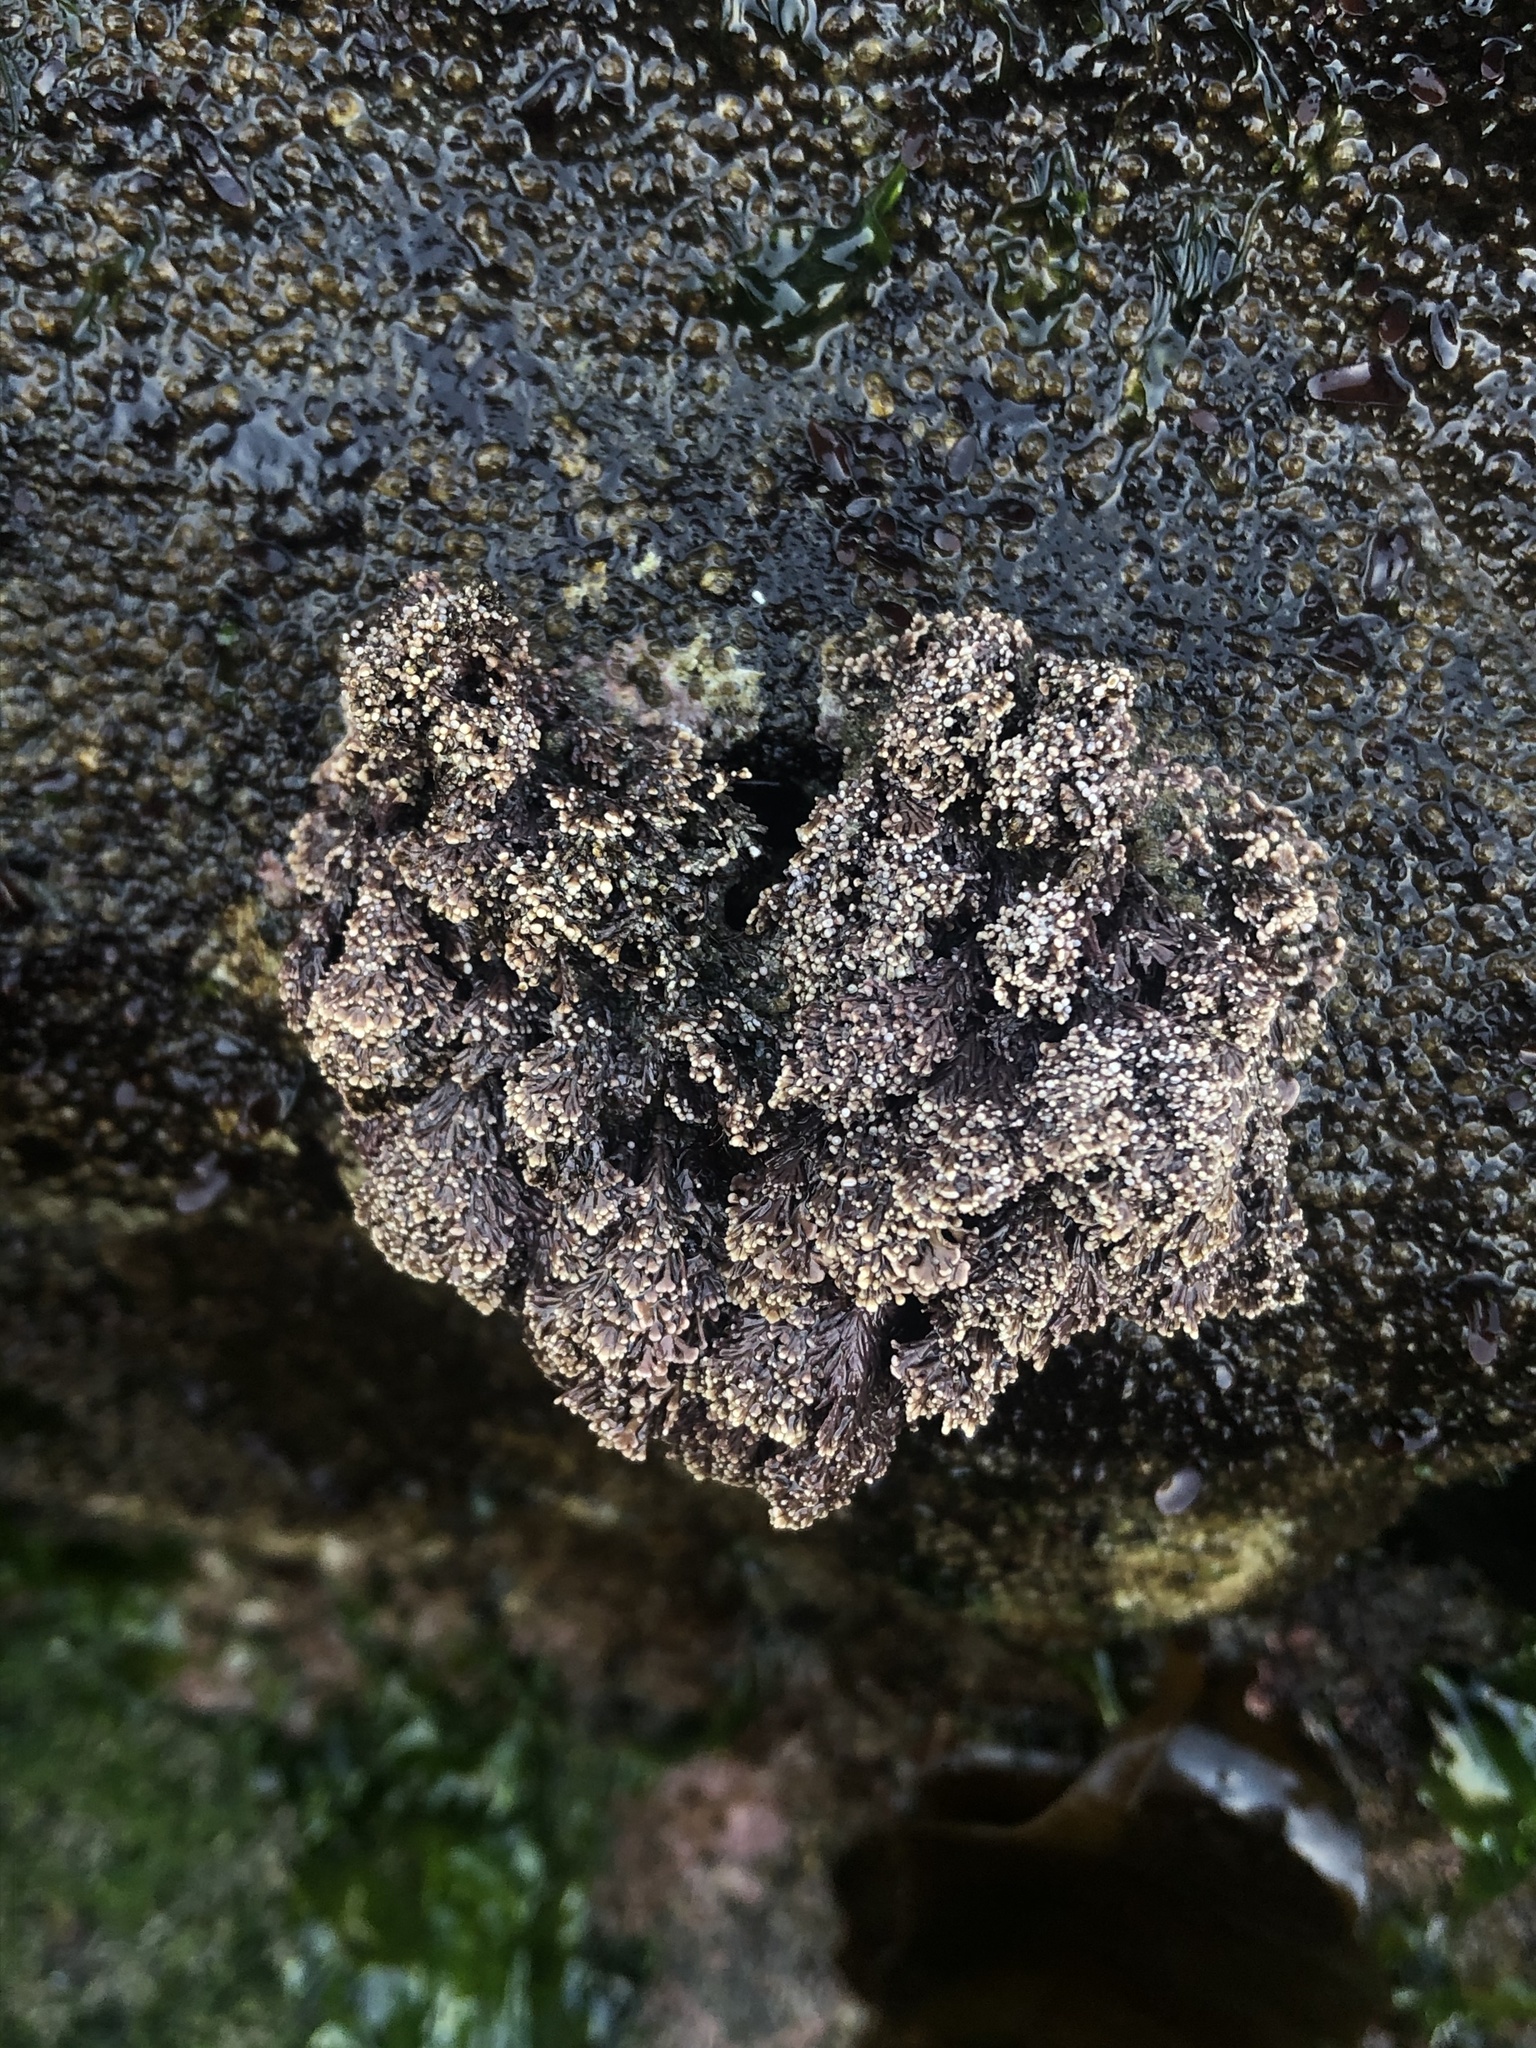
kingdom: Plantae
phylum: Rhodophyta
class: Florideophyceae
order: Corallinales
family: Corallinaceae
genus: Corallina
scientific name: Corallina vancouveriensis
